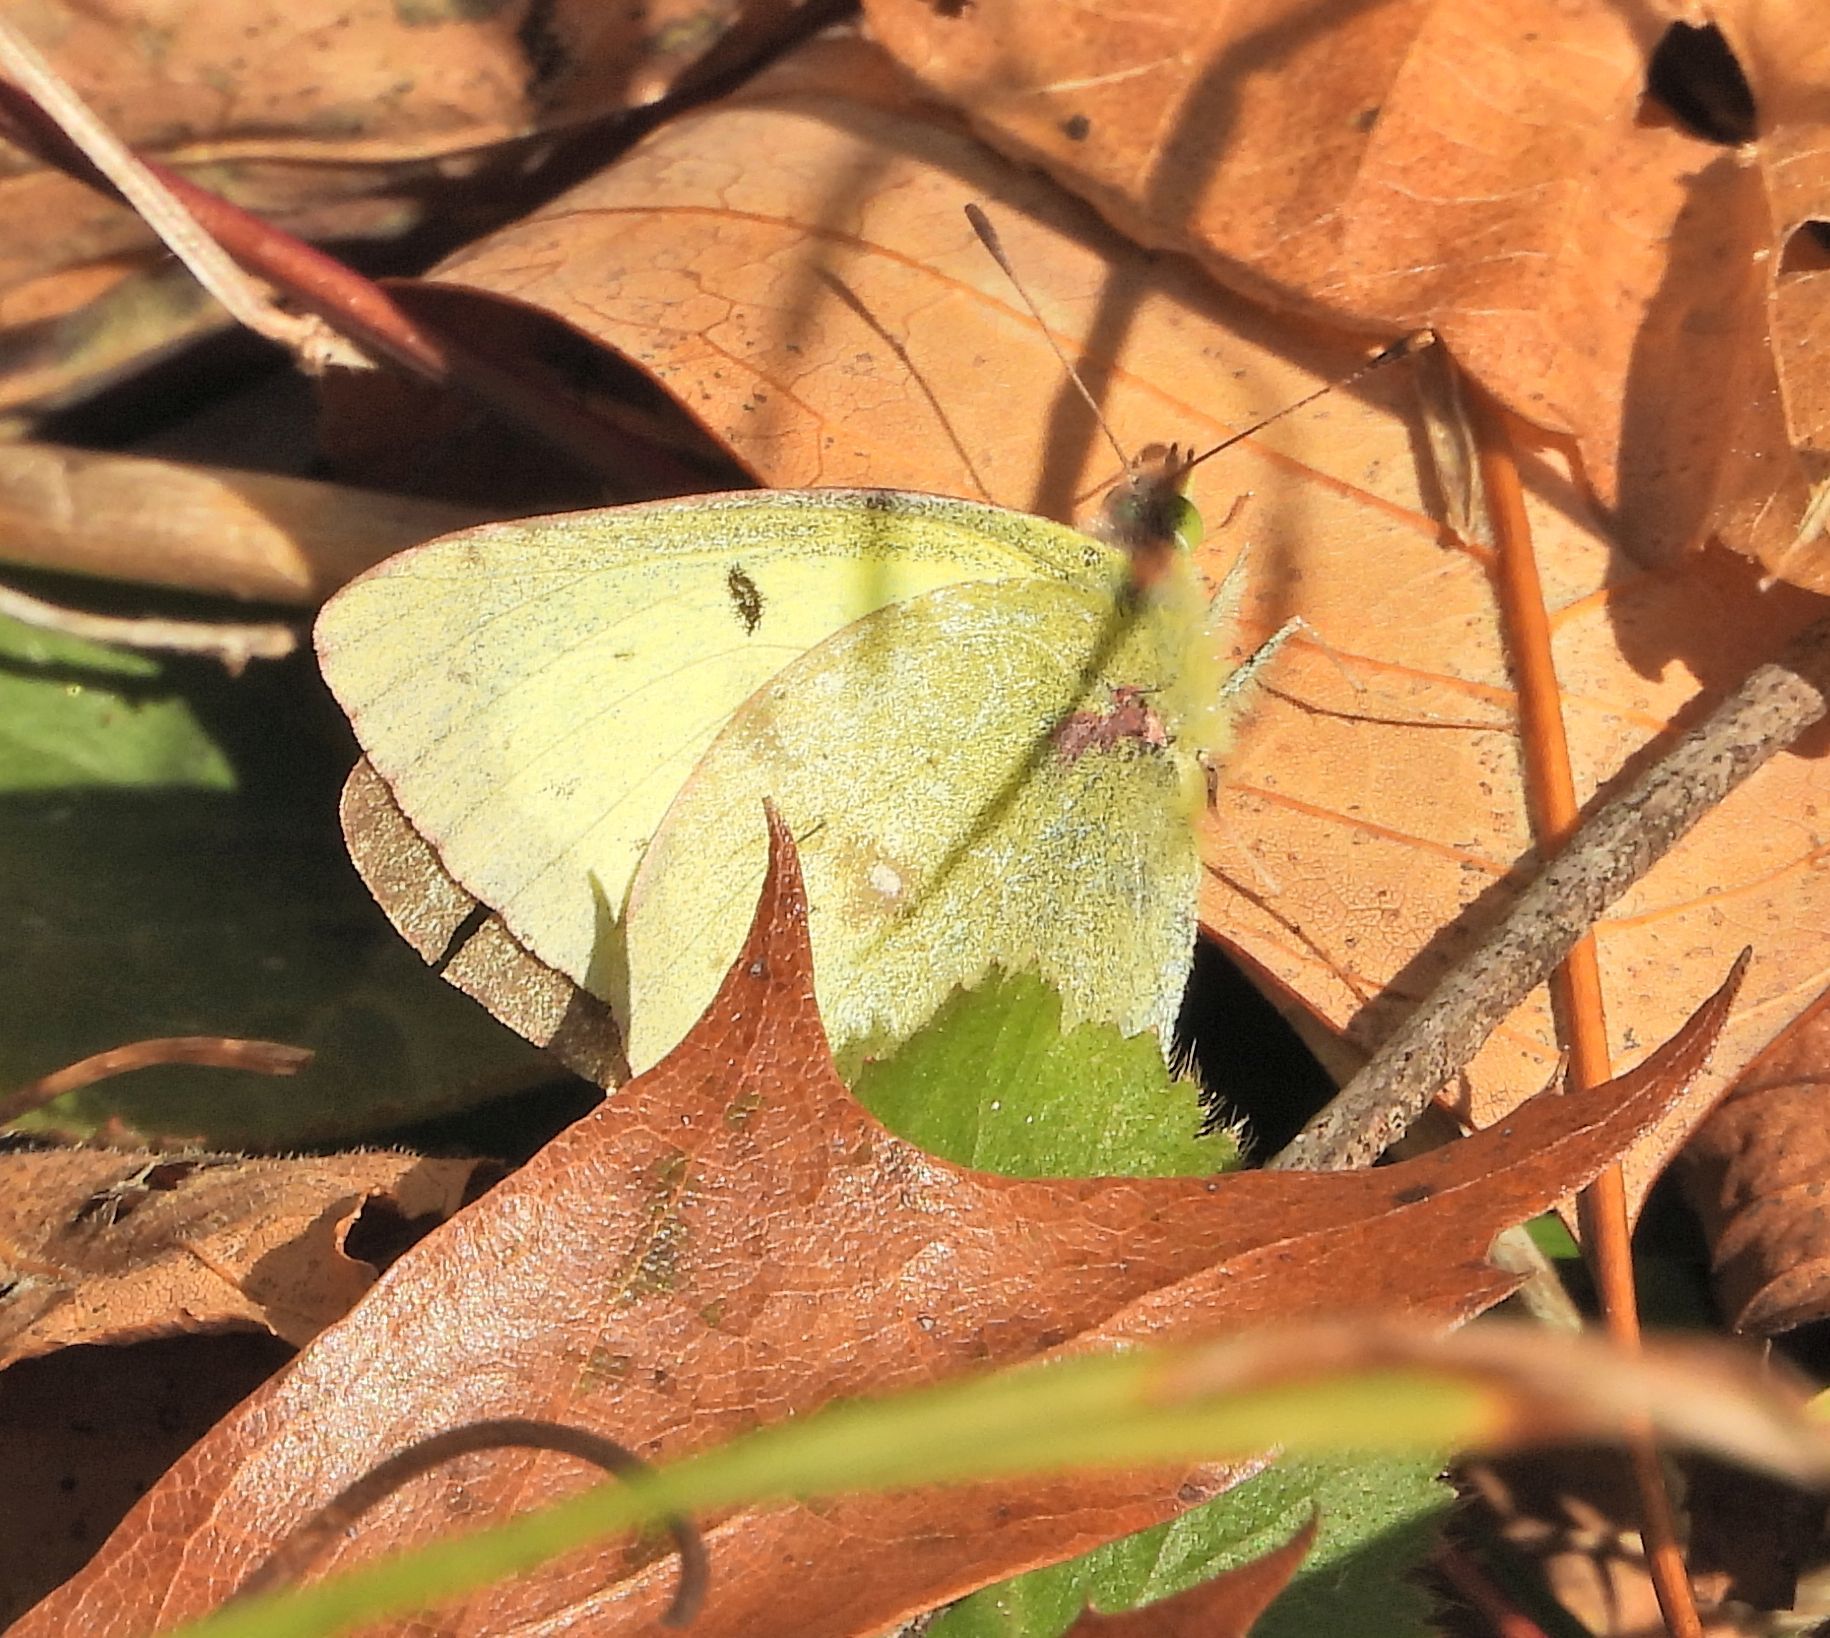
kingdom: Animalia
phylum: Arthropoda
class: Insecta
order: Lepidoptera
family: Pieridae
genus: Colias
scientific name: Colias philodice
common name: Clouded sulphur
